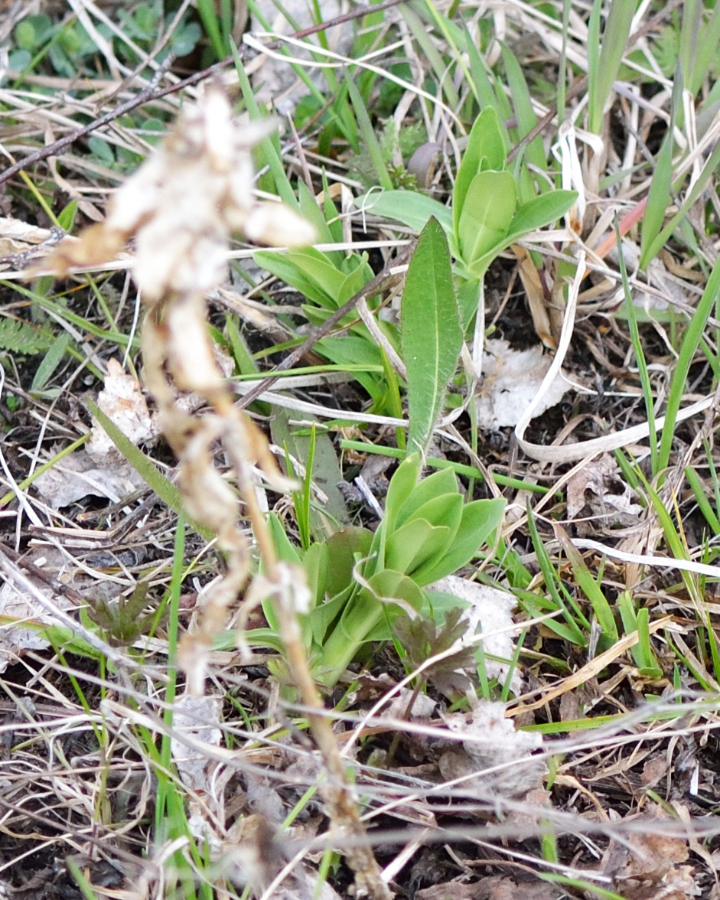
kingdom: Plantae
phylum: Tracheophyta
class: Magnoliopsida
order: Gentianales
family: Gentianaceae
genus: Gentiana
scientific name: Gentiana cruciata
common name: Cross gentian
